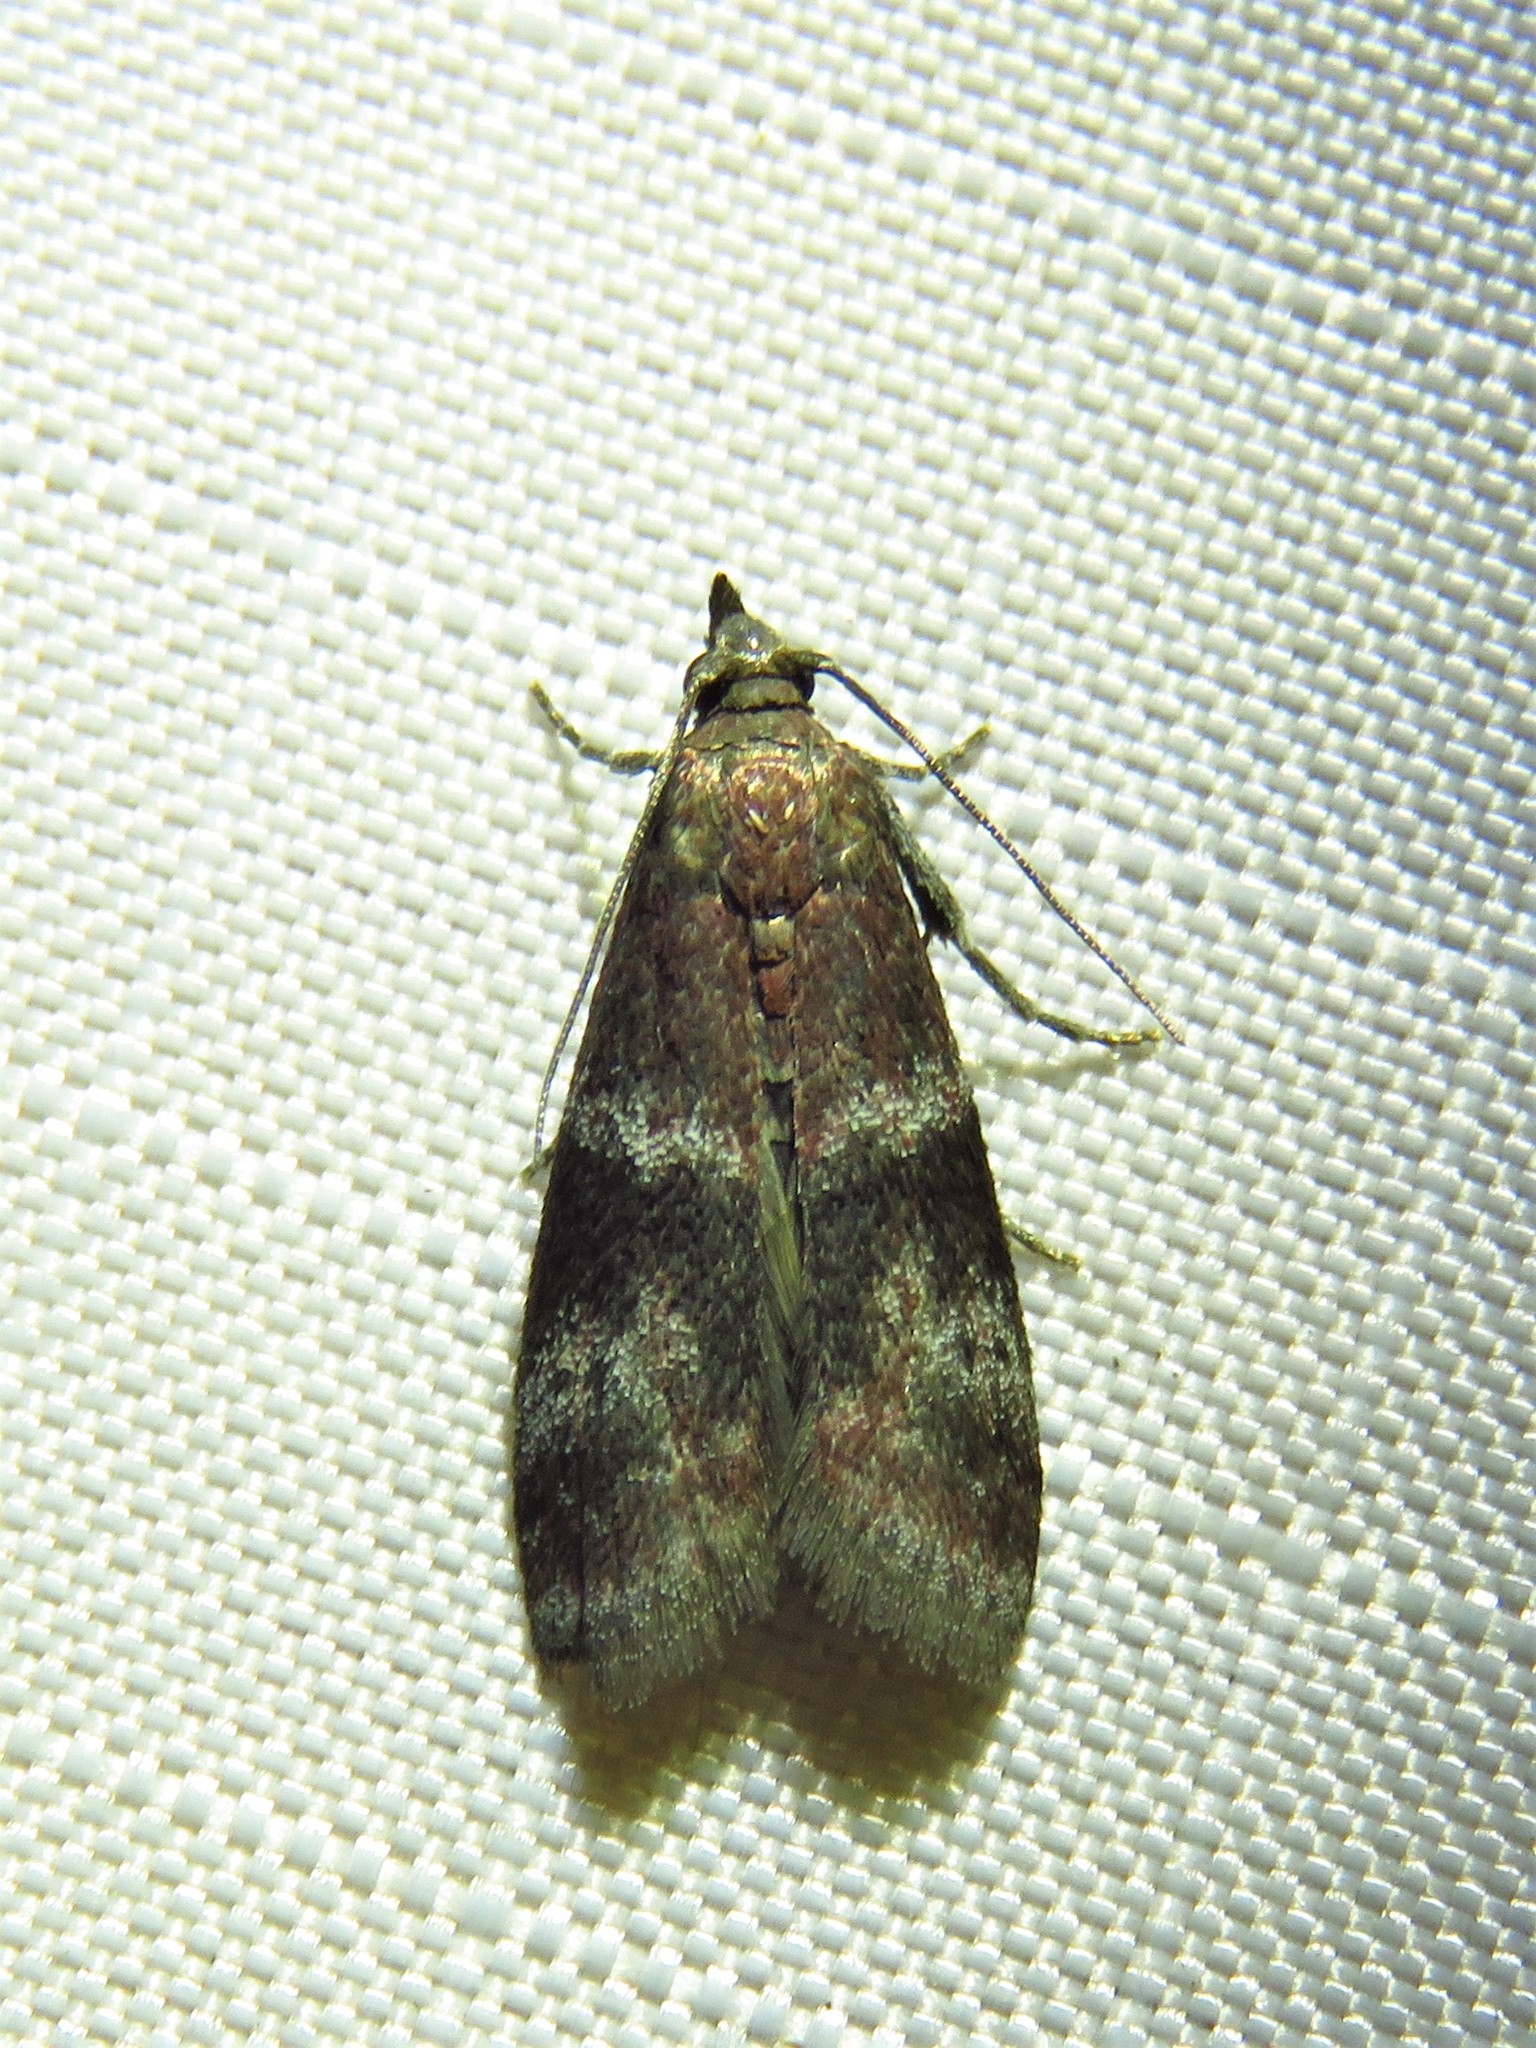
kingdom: Animalia
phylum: Arthropoda
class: Insecta
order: Lepidoptera
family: Pyralidae
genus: Moodna
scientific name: Moodna ostrinella
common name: Darker moodna moth
